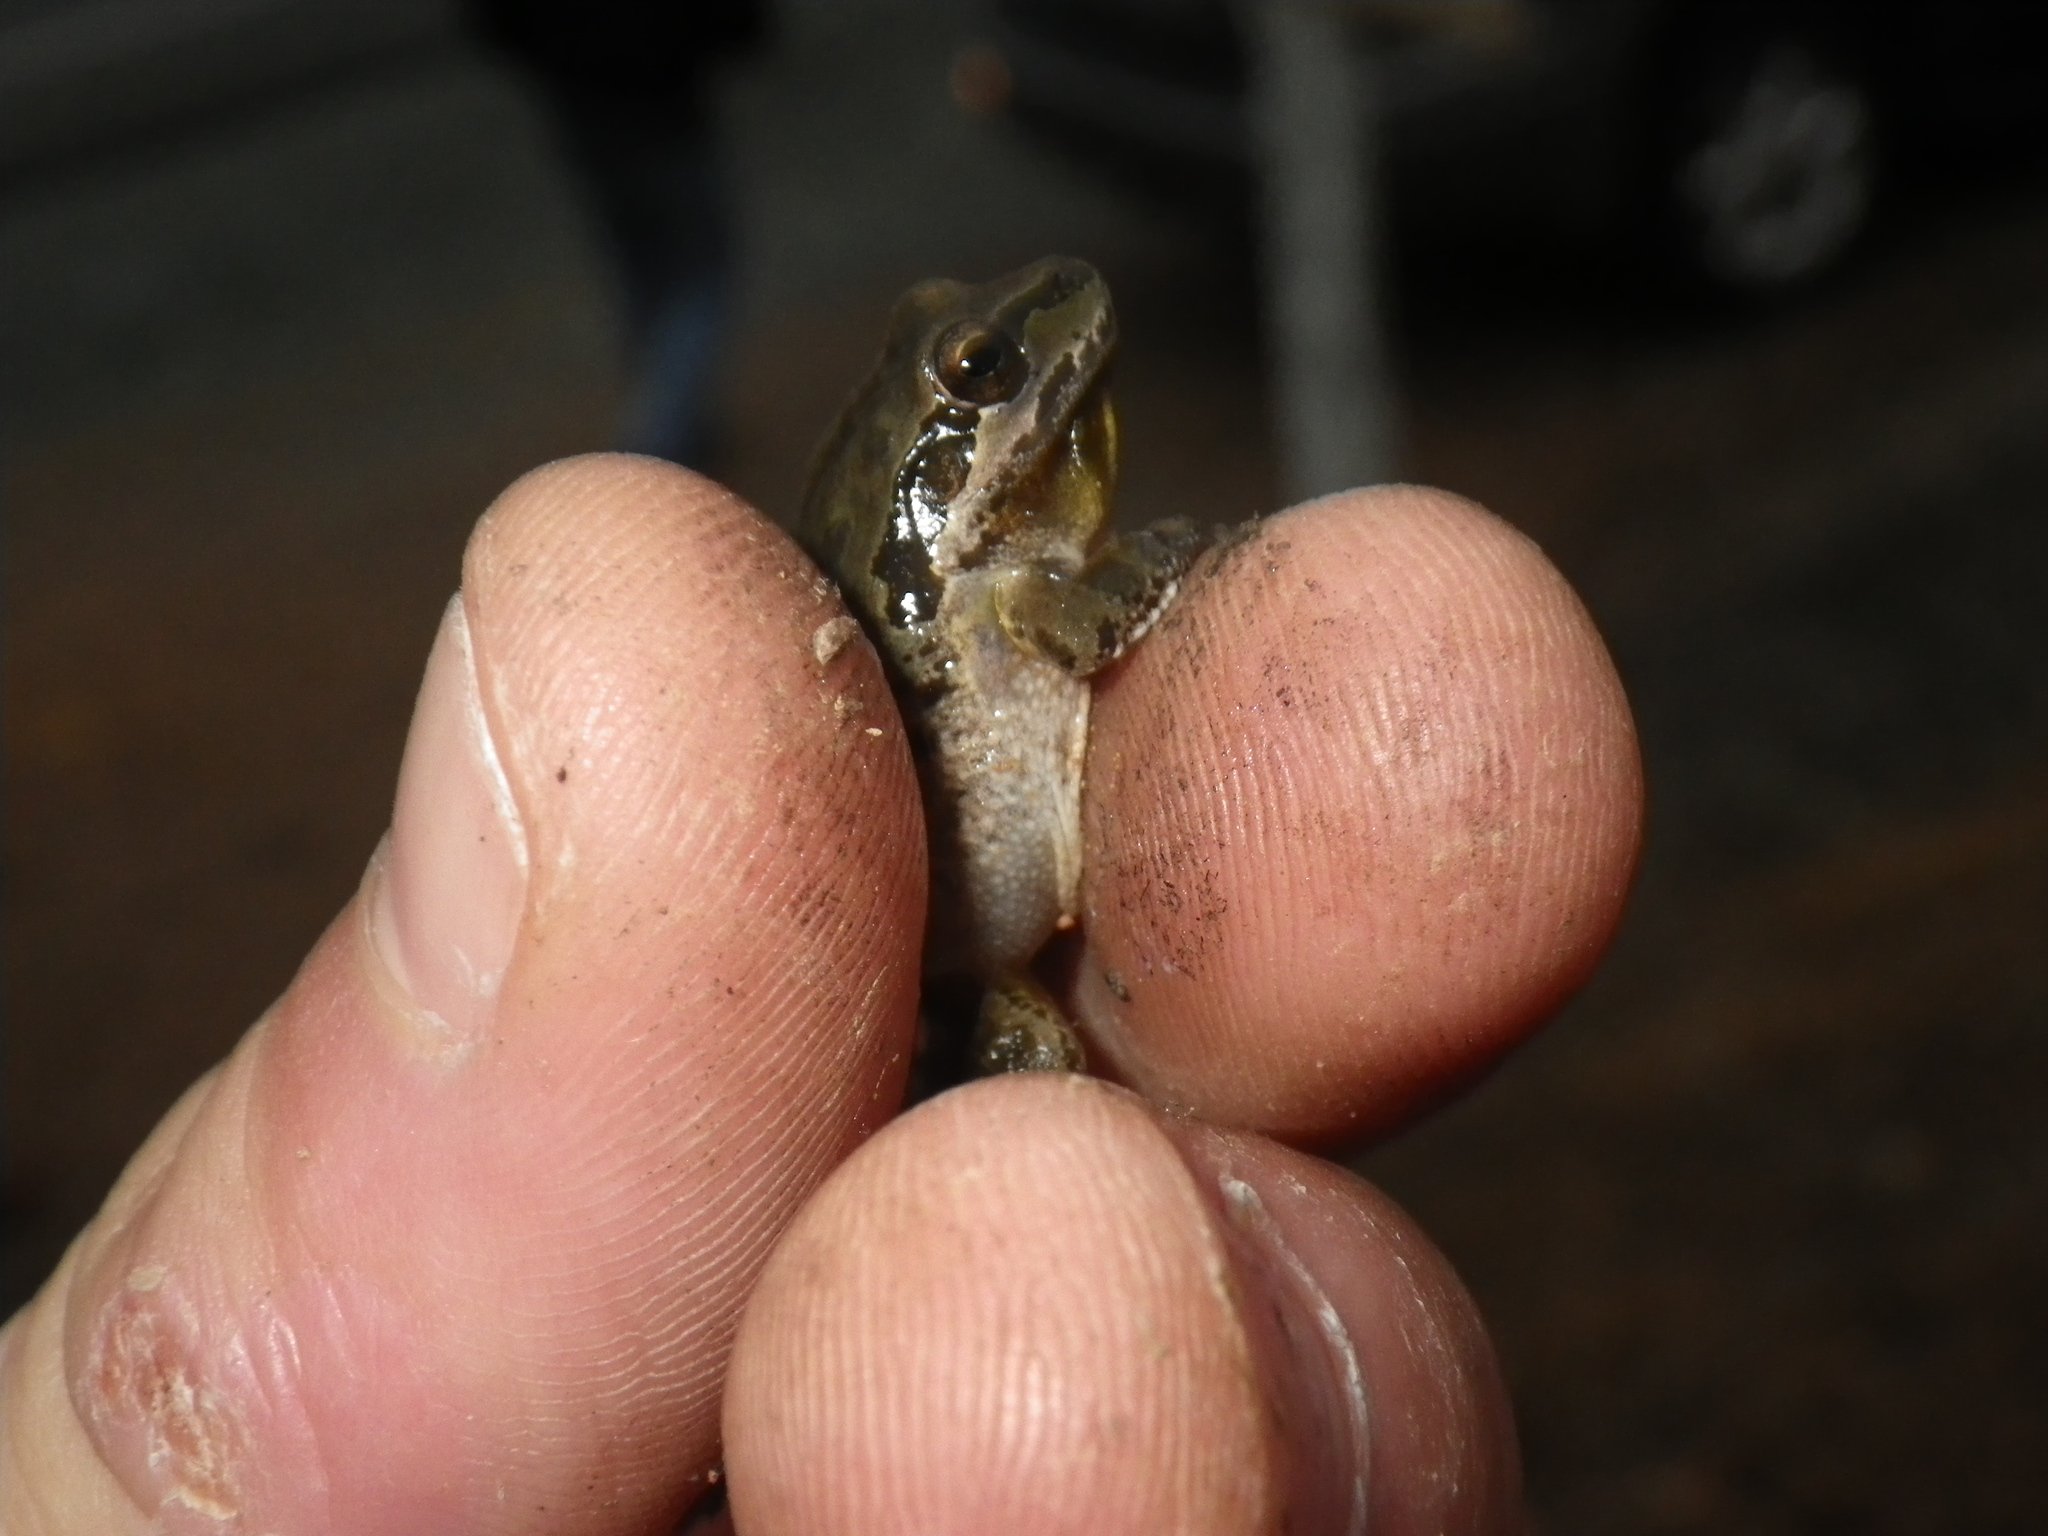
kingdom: Animalia
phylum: Chordata
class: Amphibia
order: Anura
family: Hylidae
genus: Pseudacris
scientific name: Pseudacris regilla
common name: Pacific chorus frog
